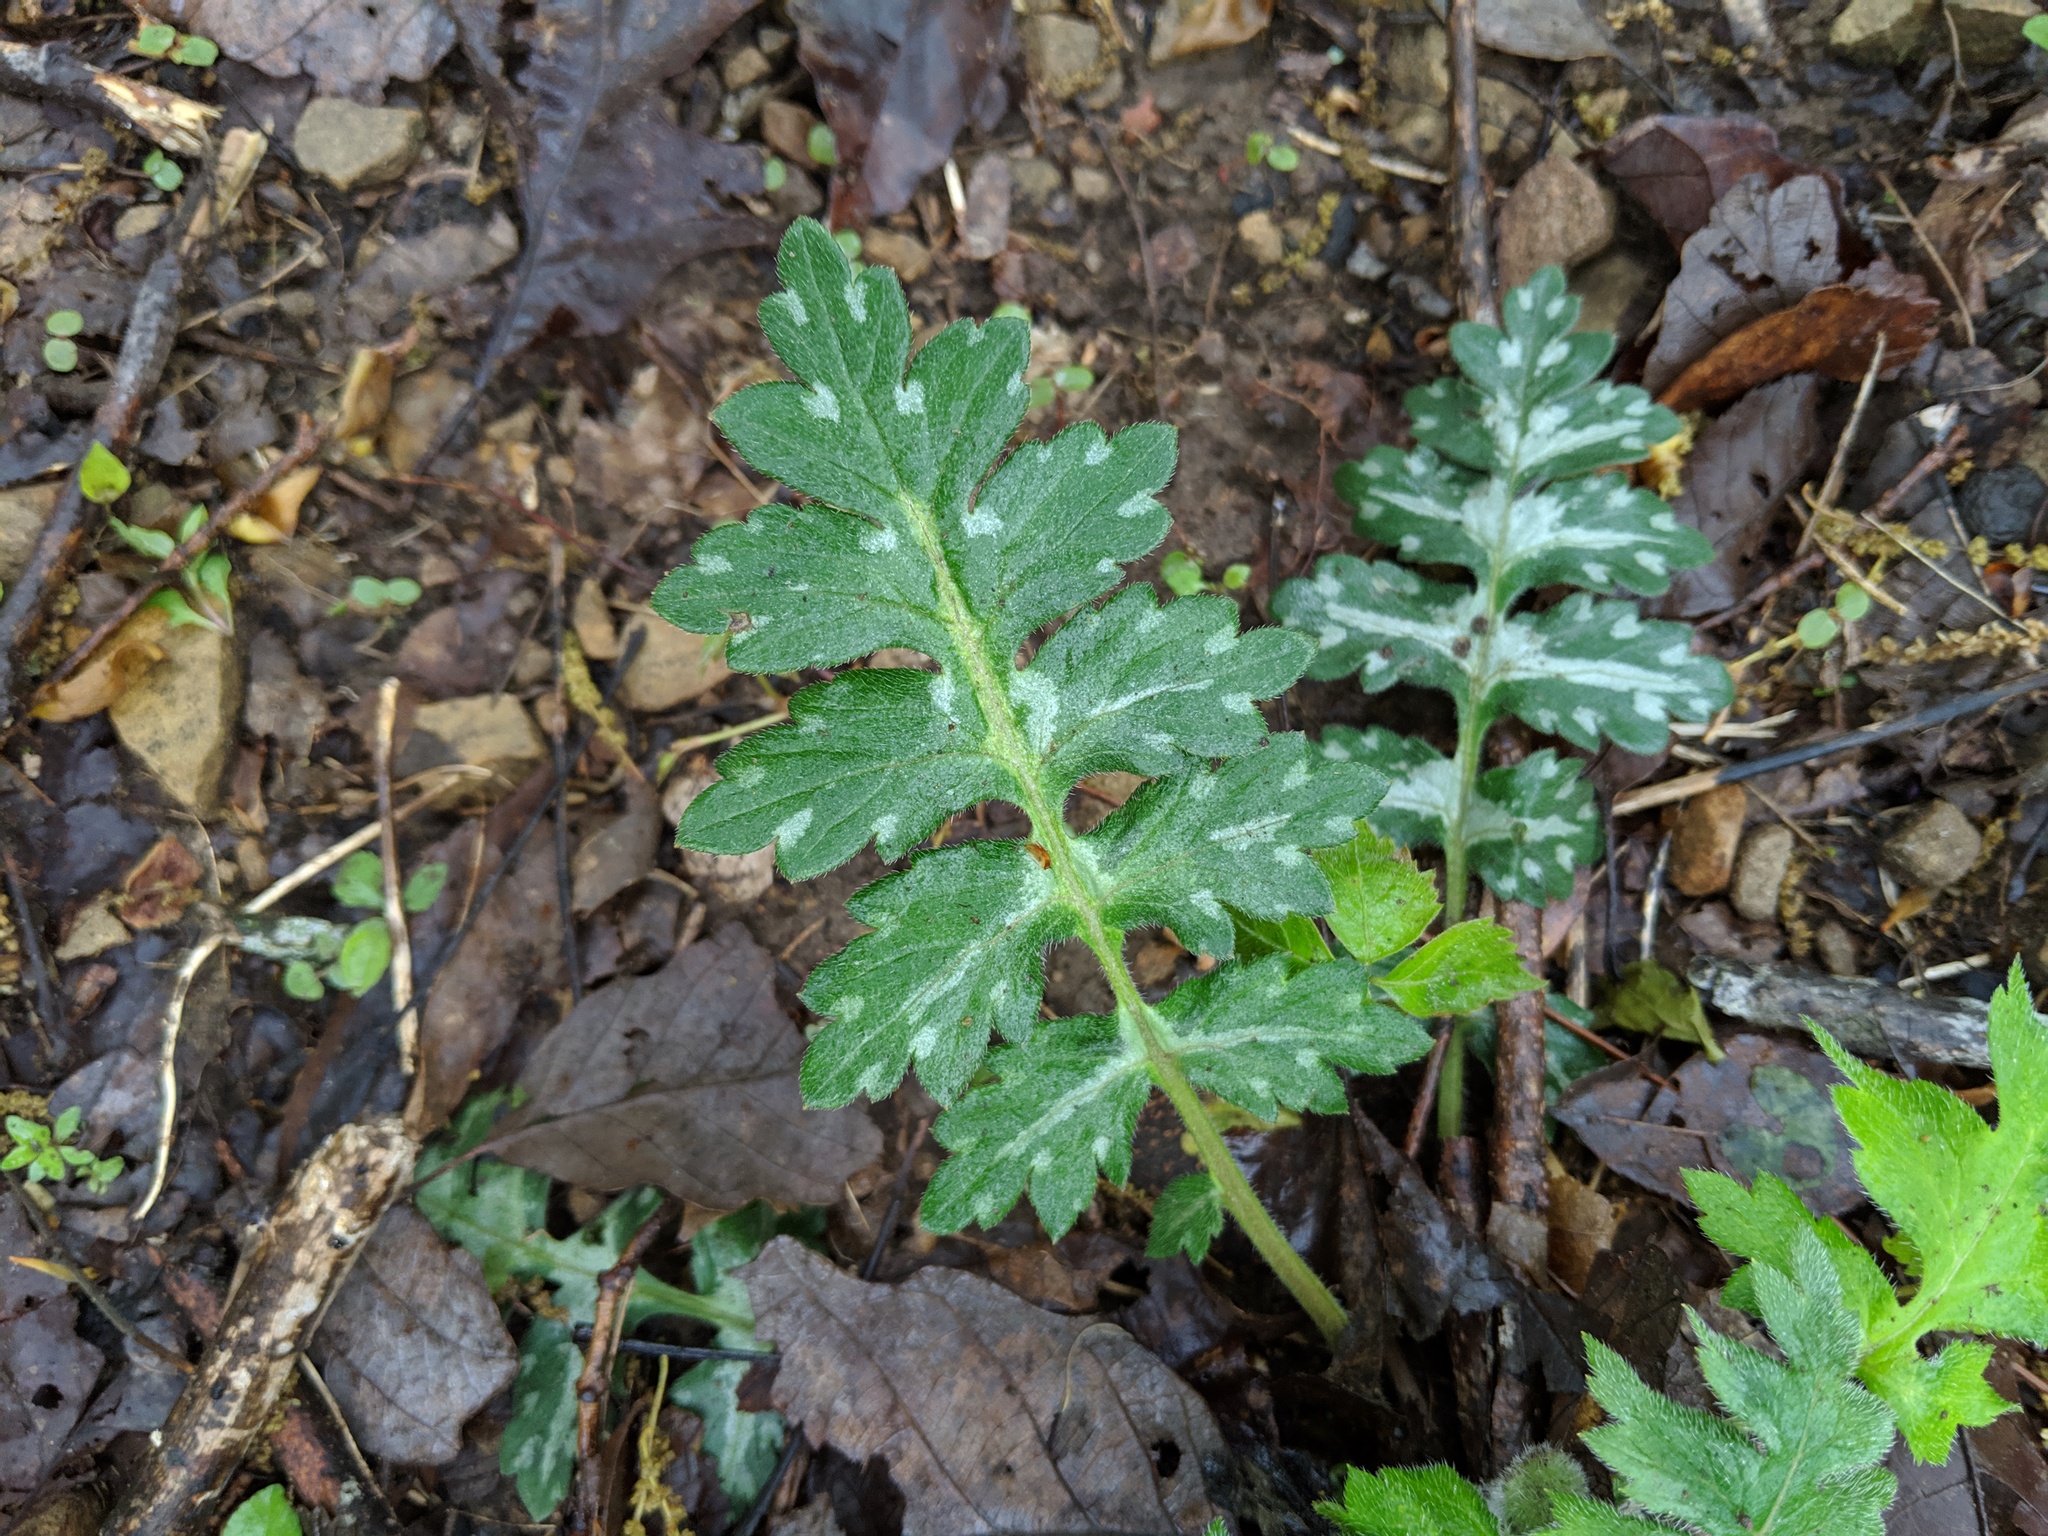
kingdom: Plantae
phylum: Tracheophyta
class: Magnoliopsida
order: Boraginales
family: Hydrophyllaceae
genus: Hydrophyllum
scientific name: Hydrophyllum macrophyllum
